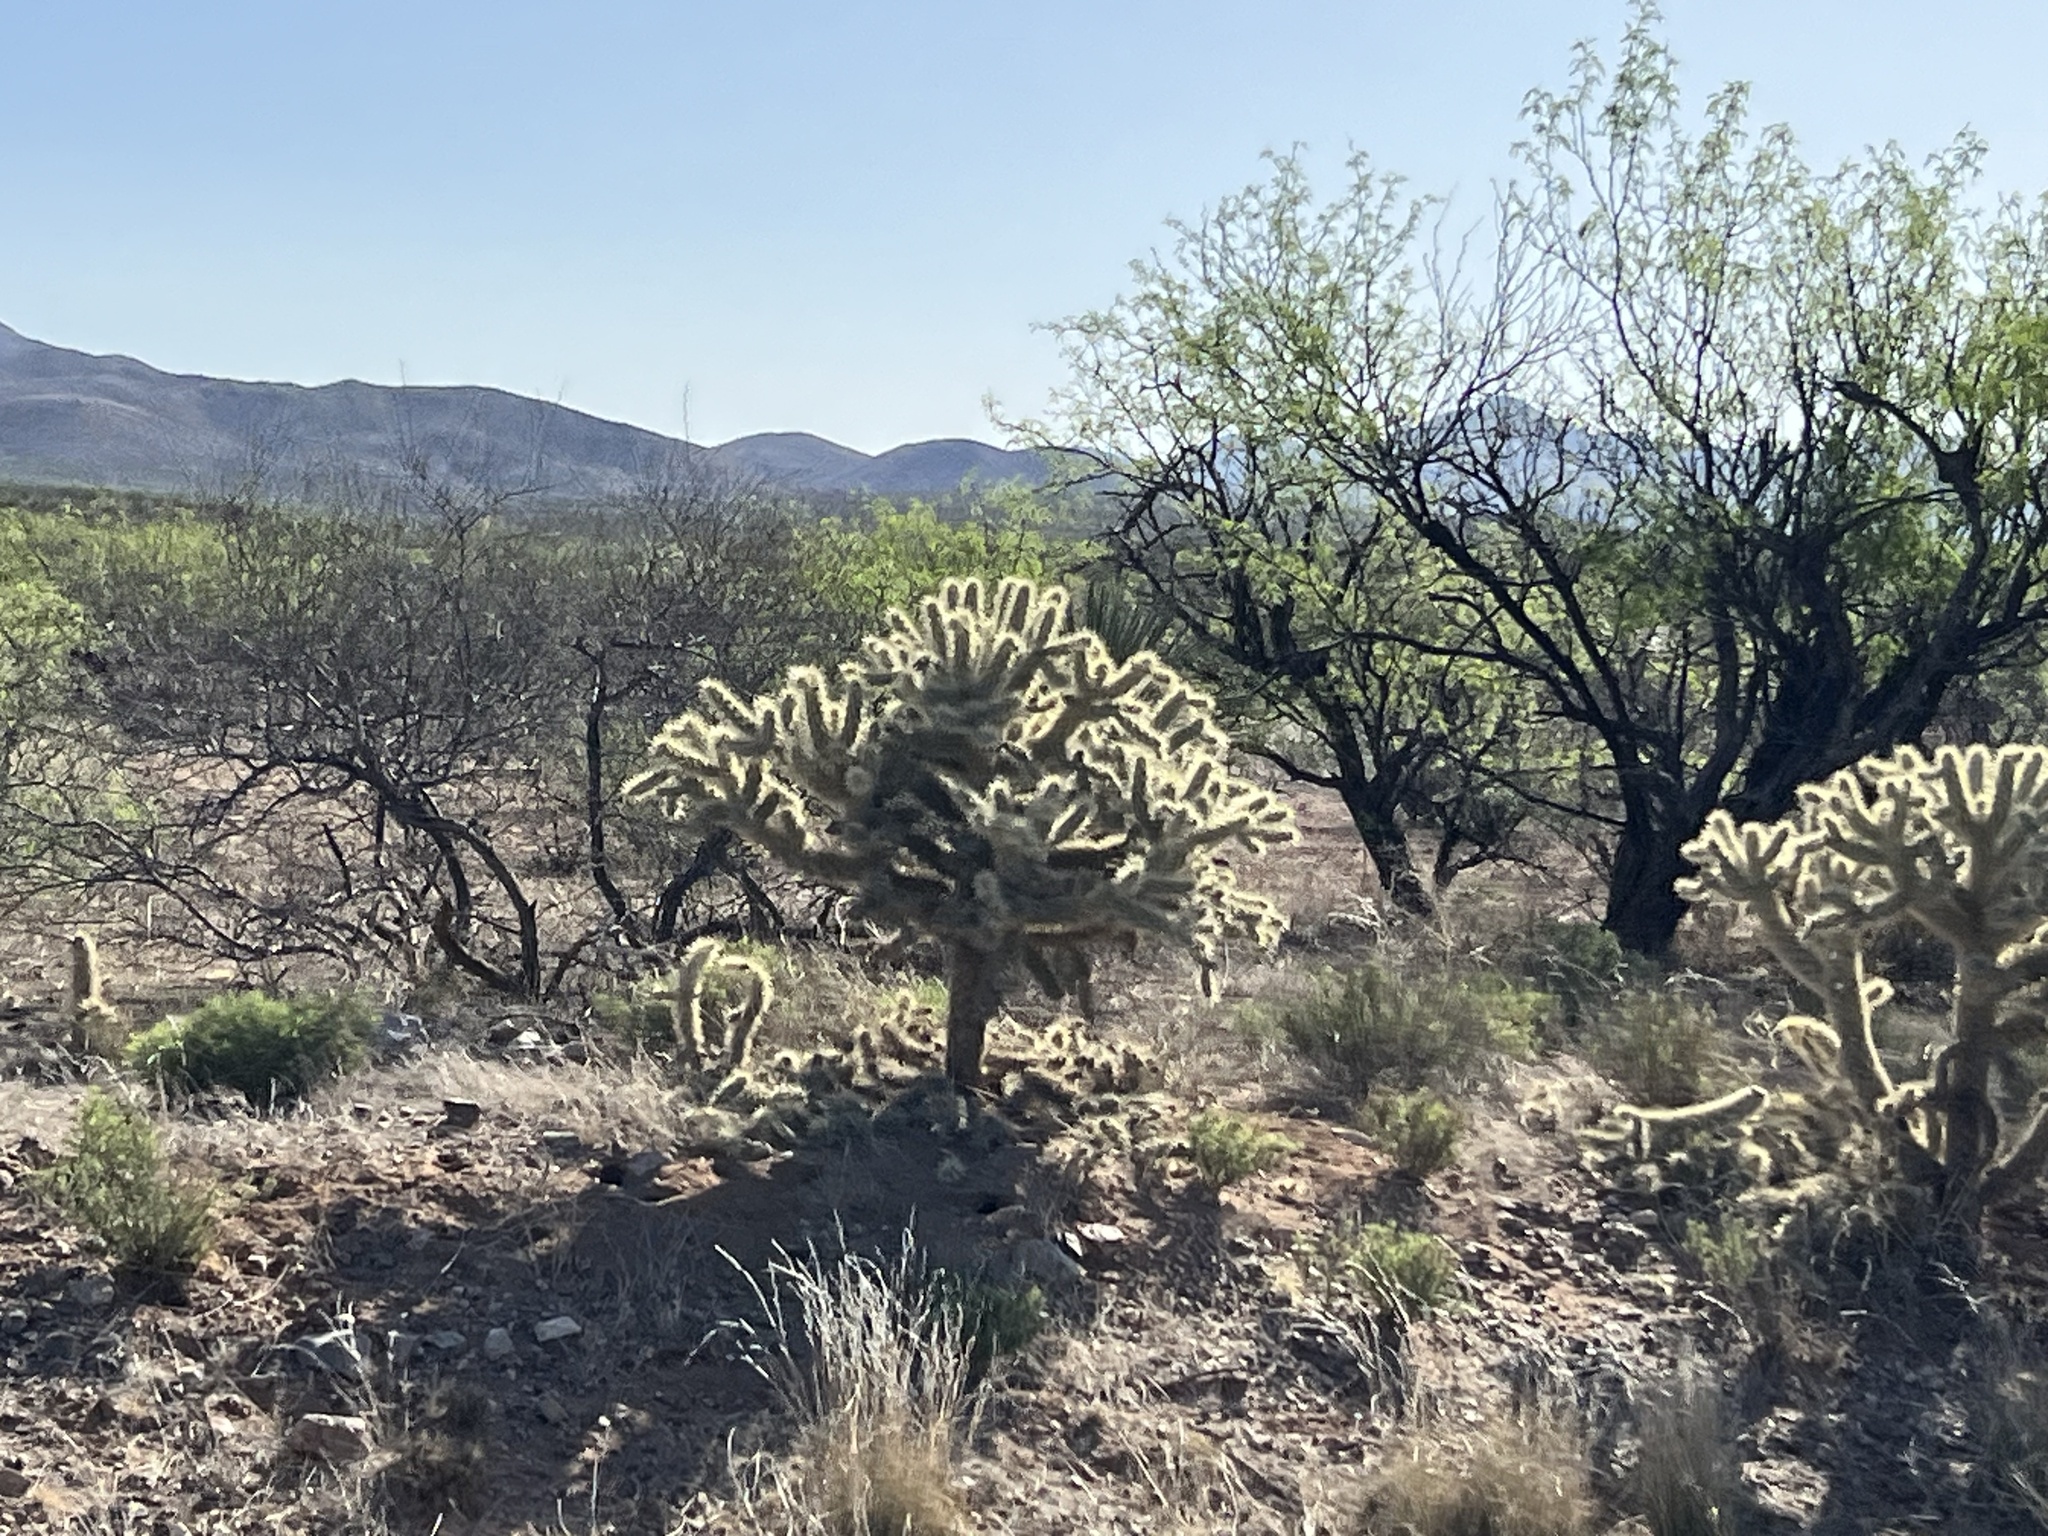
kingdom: Plantae
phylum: Tracheophyta
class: Magnoliopsida
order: Caryophyllales
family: Cactaceae
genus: Cylindropuntia
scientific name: Cylindropuntia fulgida
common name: Jumping cholla
